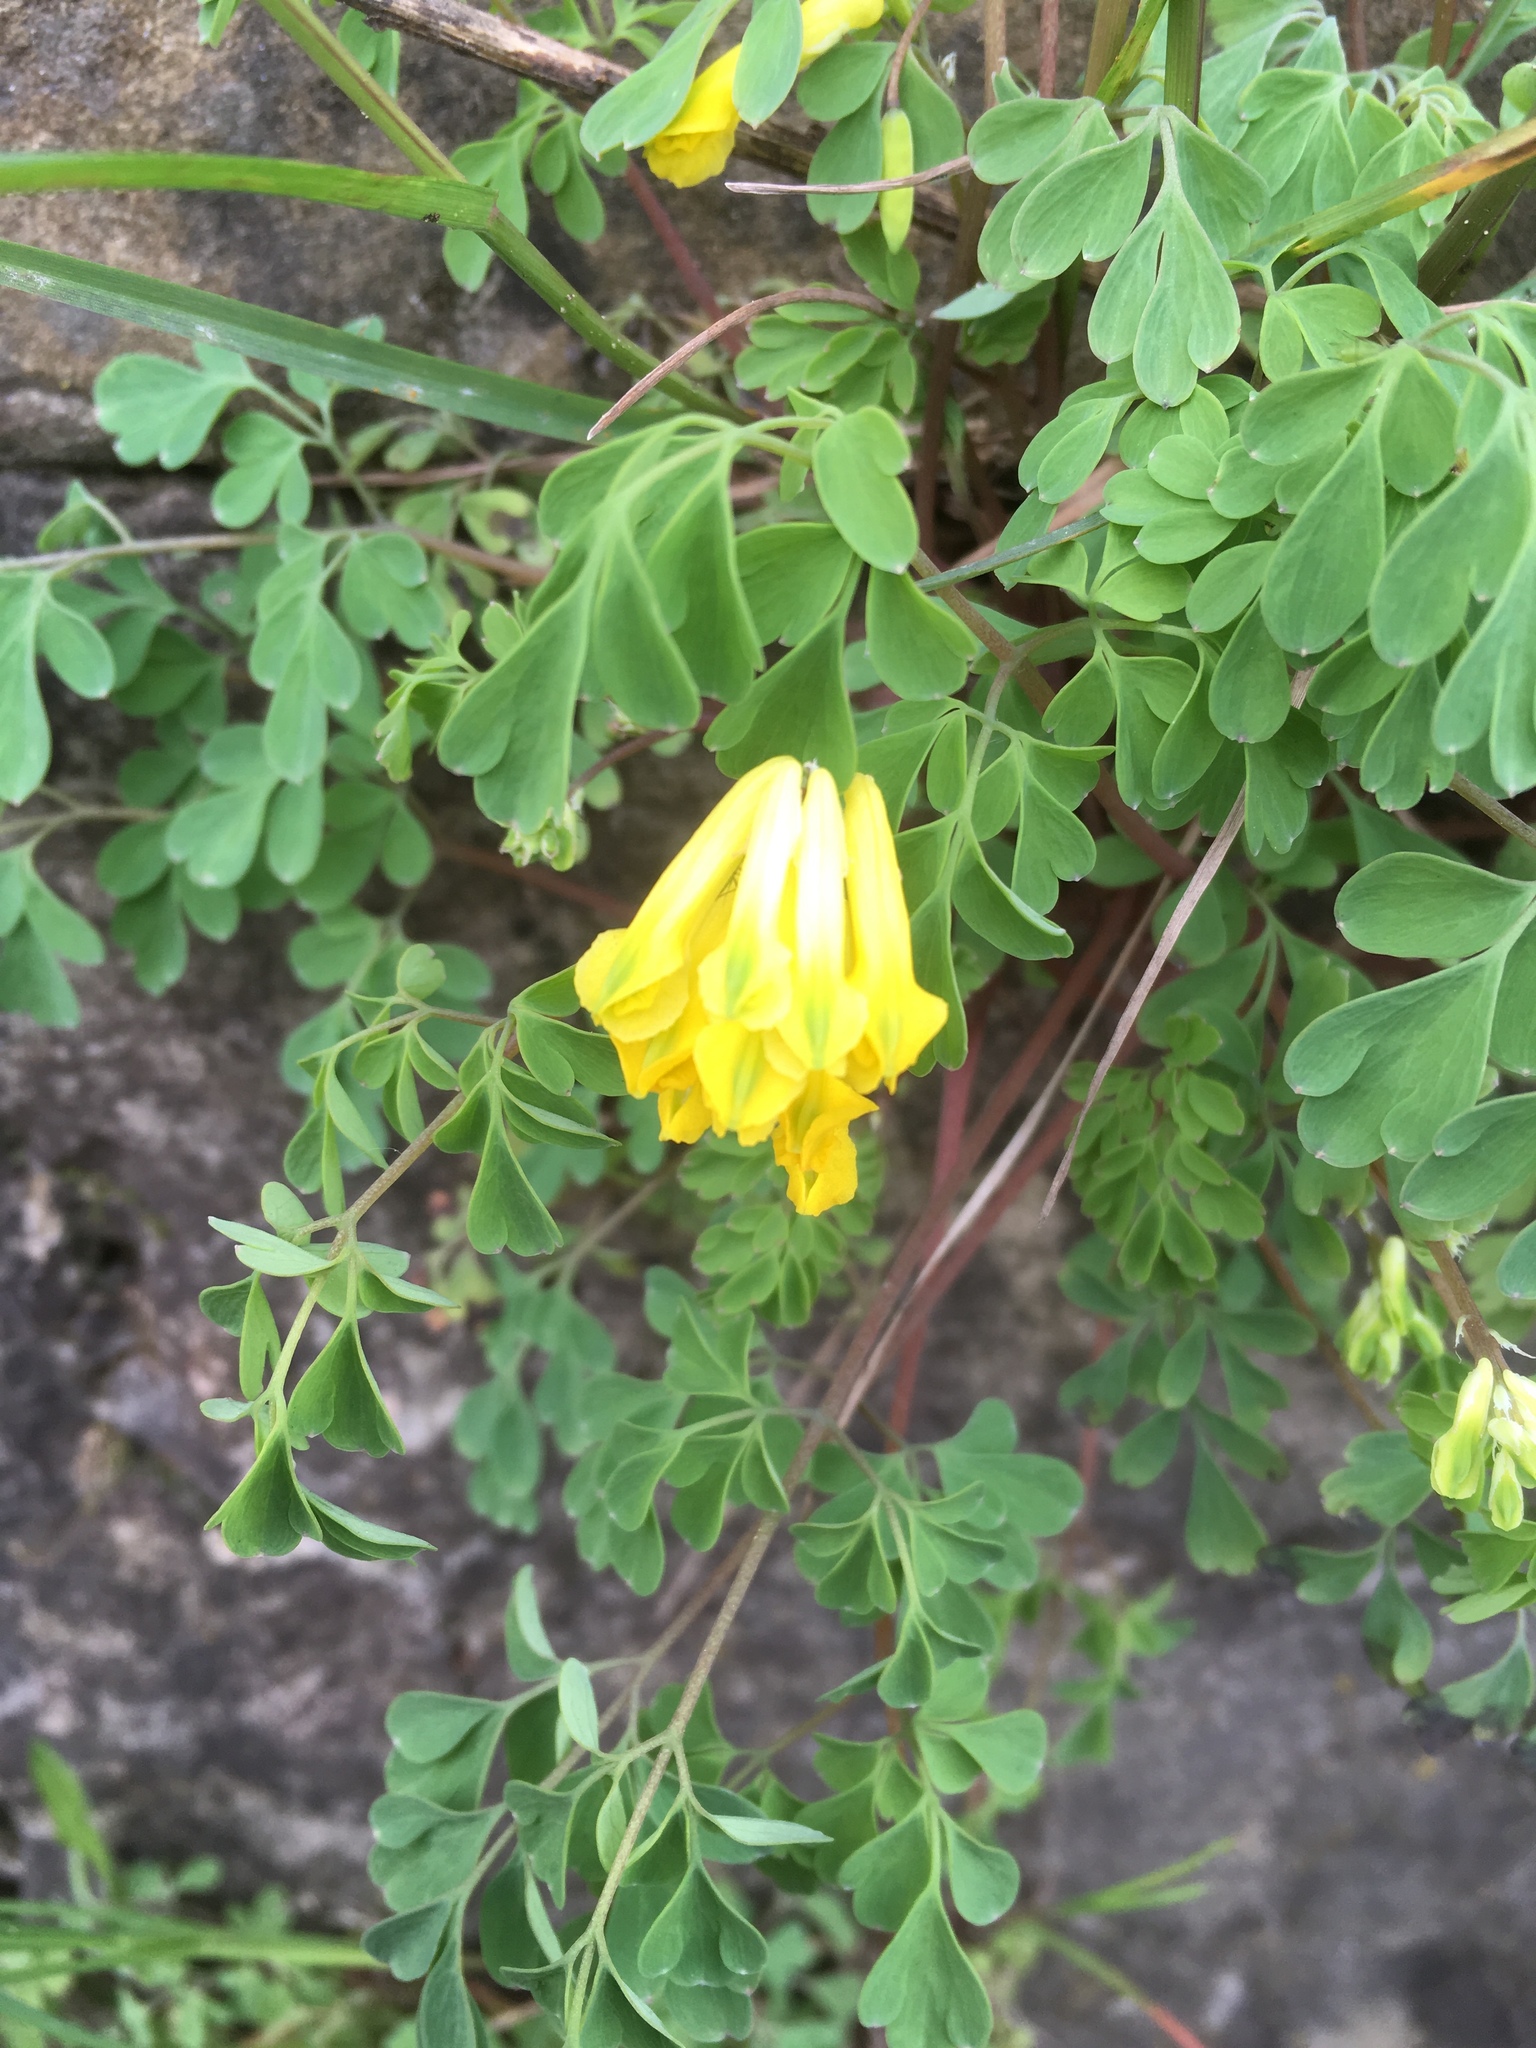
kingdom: Plantae
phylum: Tracheophyta
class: Magnoliopsida
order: Ranunculales
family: Papaveraceae
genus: Pseudofumaria
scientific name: Pseudofumaria lutea
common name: Yellow corydalis
